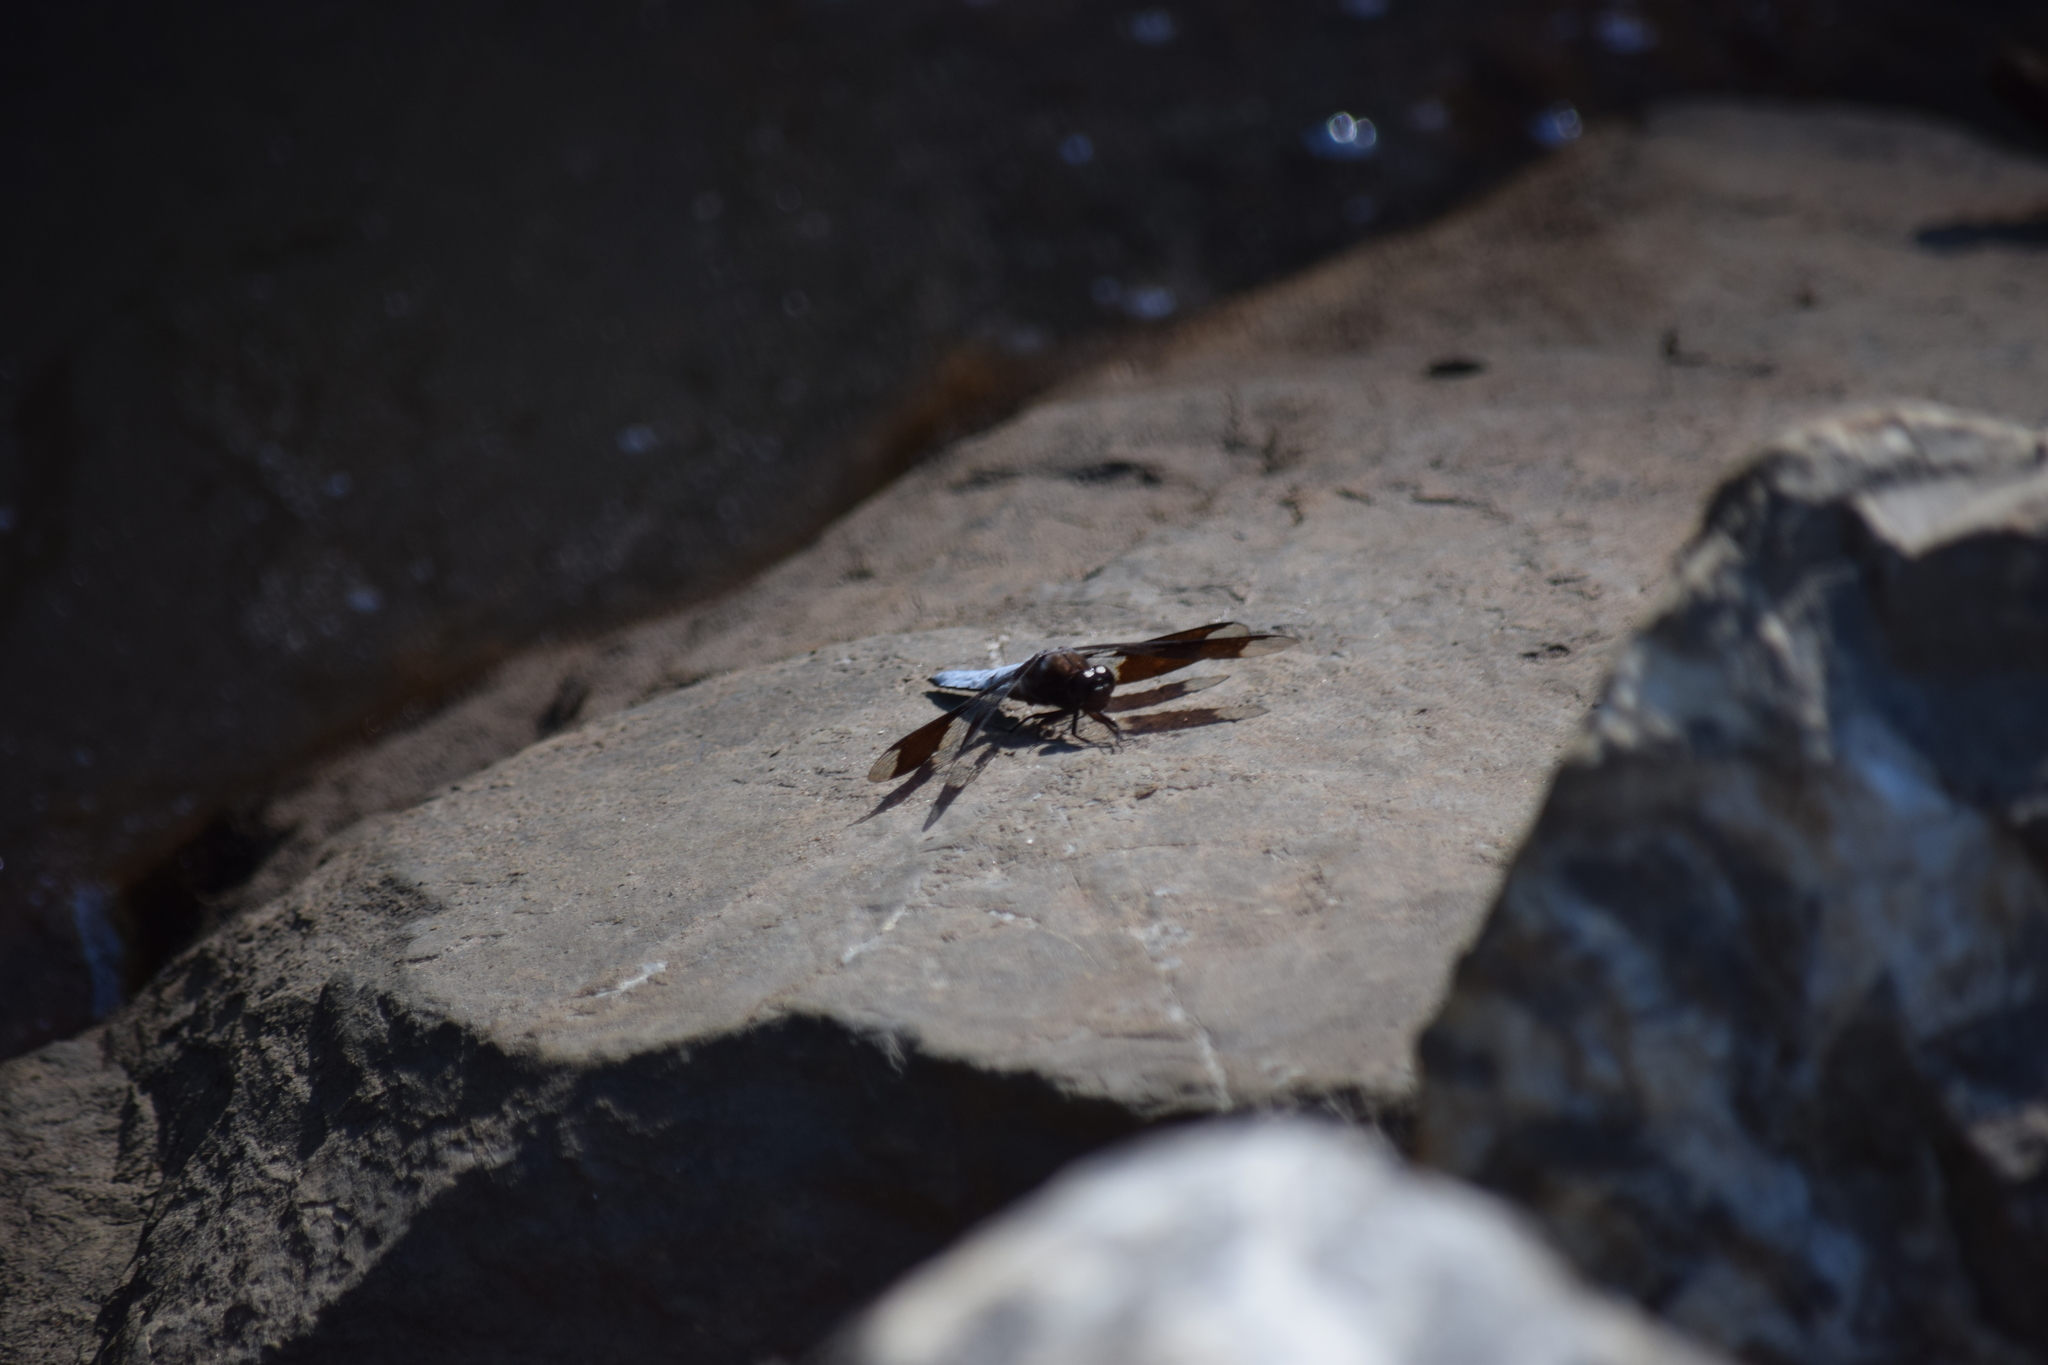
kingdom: Animalia
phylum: Arthropoda
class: Insecta
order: Odonata
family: Libellulidae
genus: Plathemis
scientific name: Plathemis lydia
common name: Common whitetail
